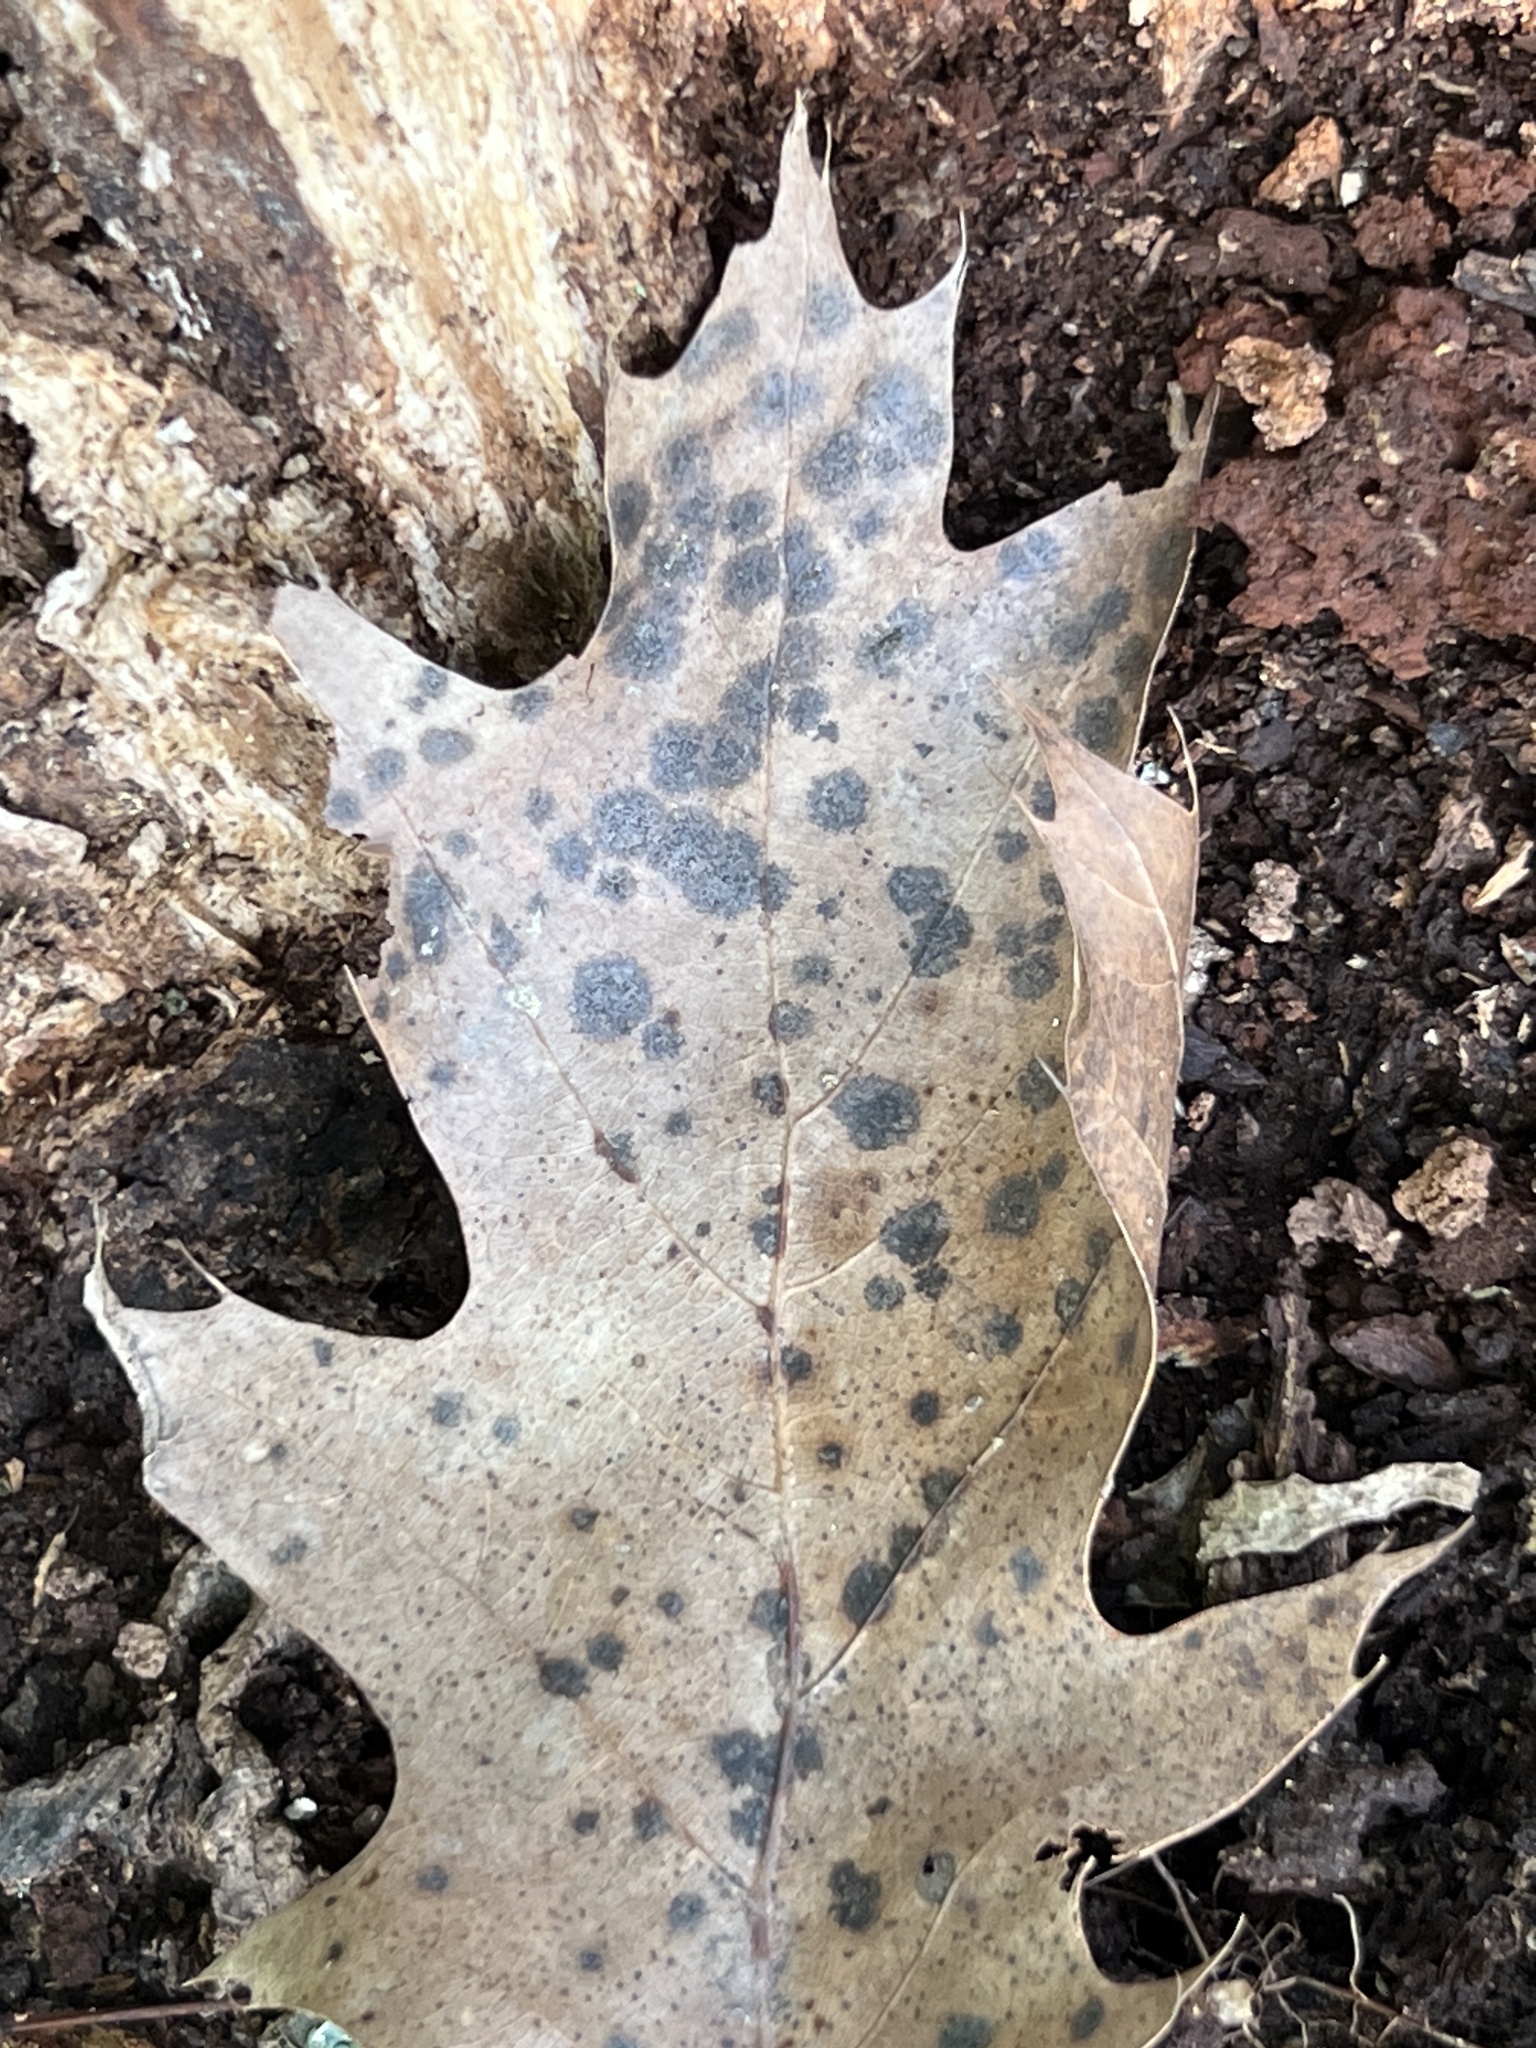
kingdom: Fungi
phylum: Ascomycota
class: Sordariomycetes
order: Diaporthales
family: Melanconidaceae
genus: Dicarpella
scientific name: Dicarpella dryina
